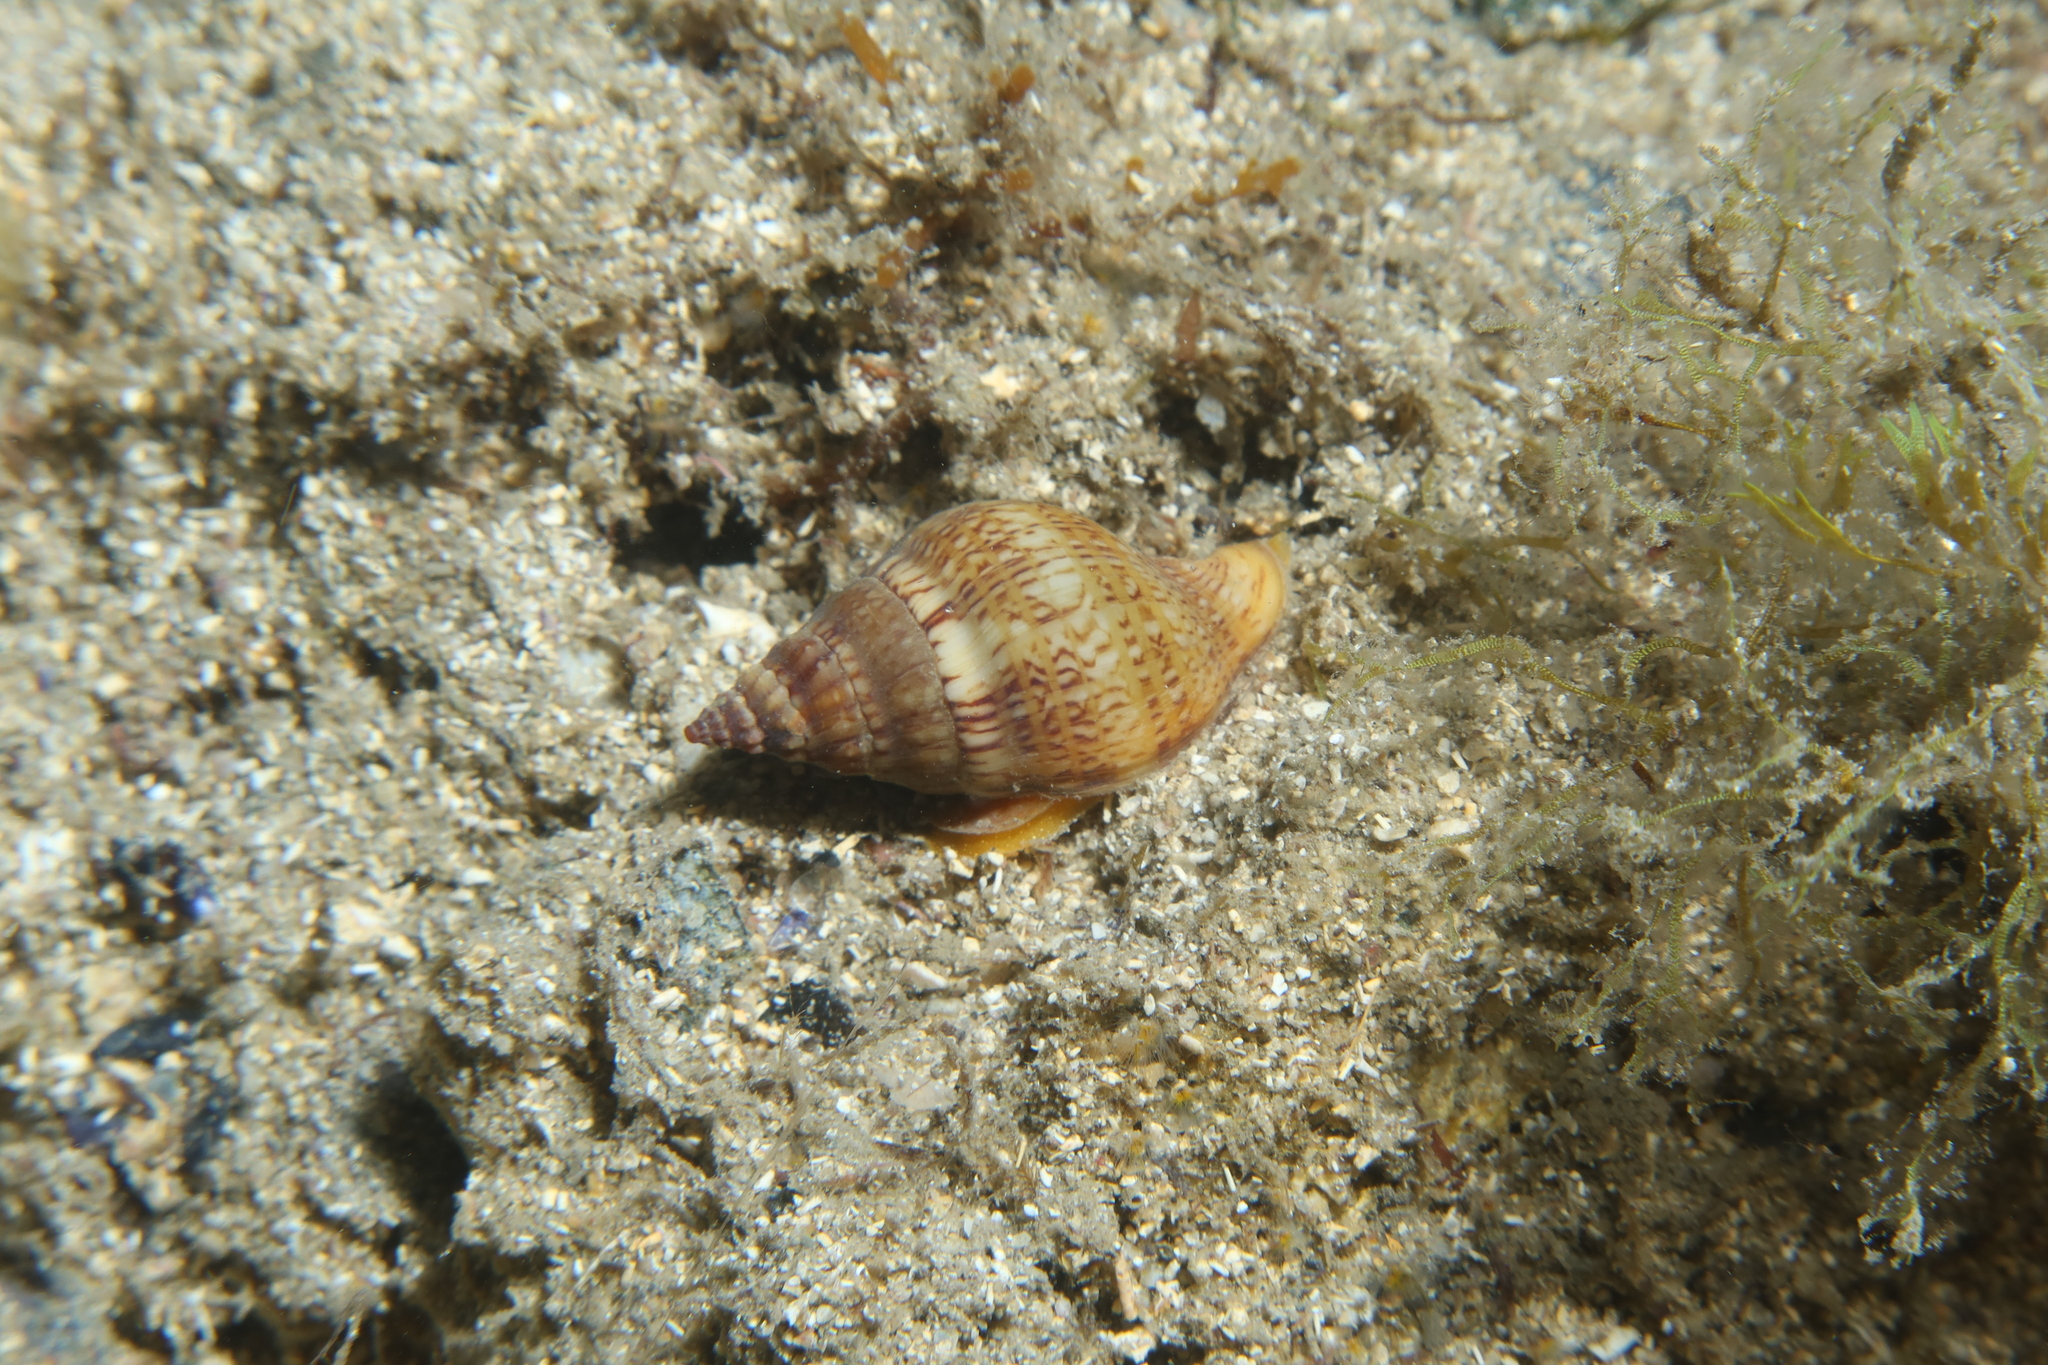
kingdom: Animalia
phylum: Mollusca
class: Gastropoda
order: Neogastropoda
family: Tudiclidae
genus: Euthria
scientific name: Euthria cornea
